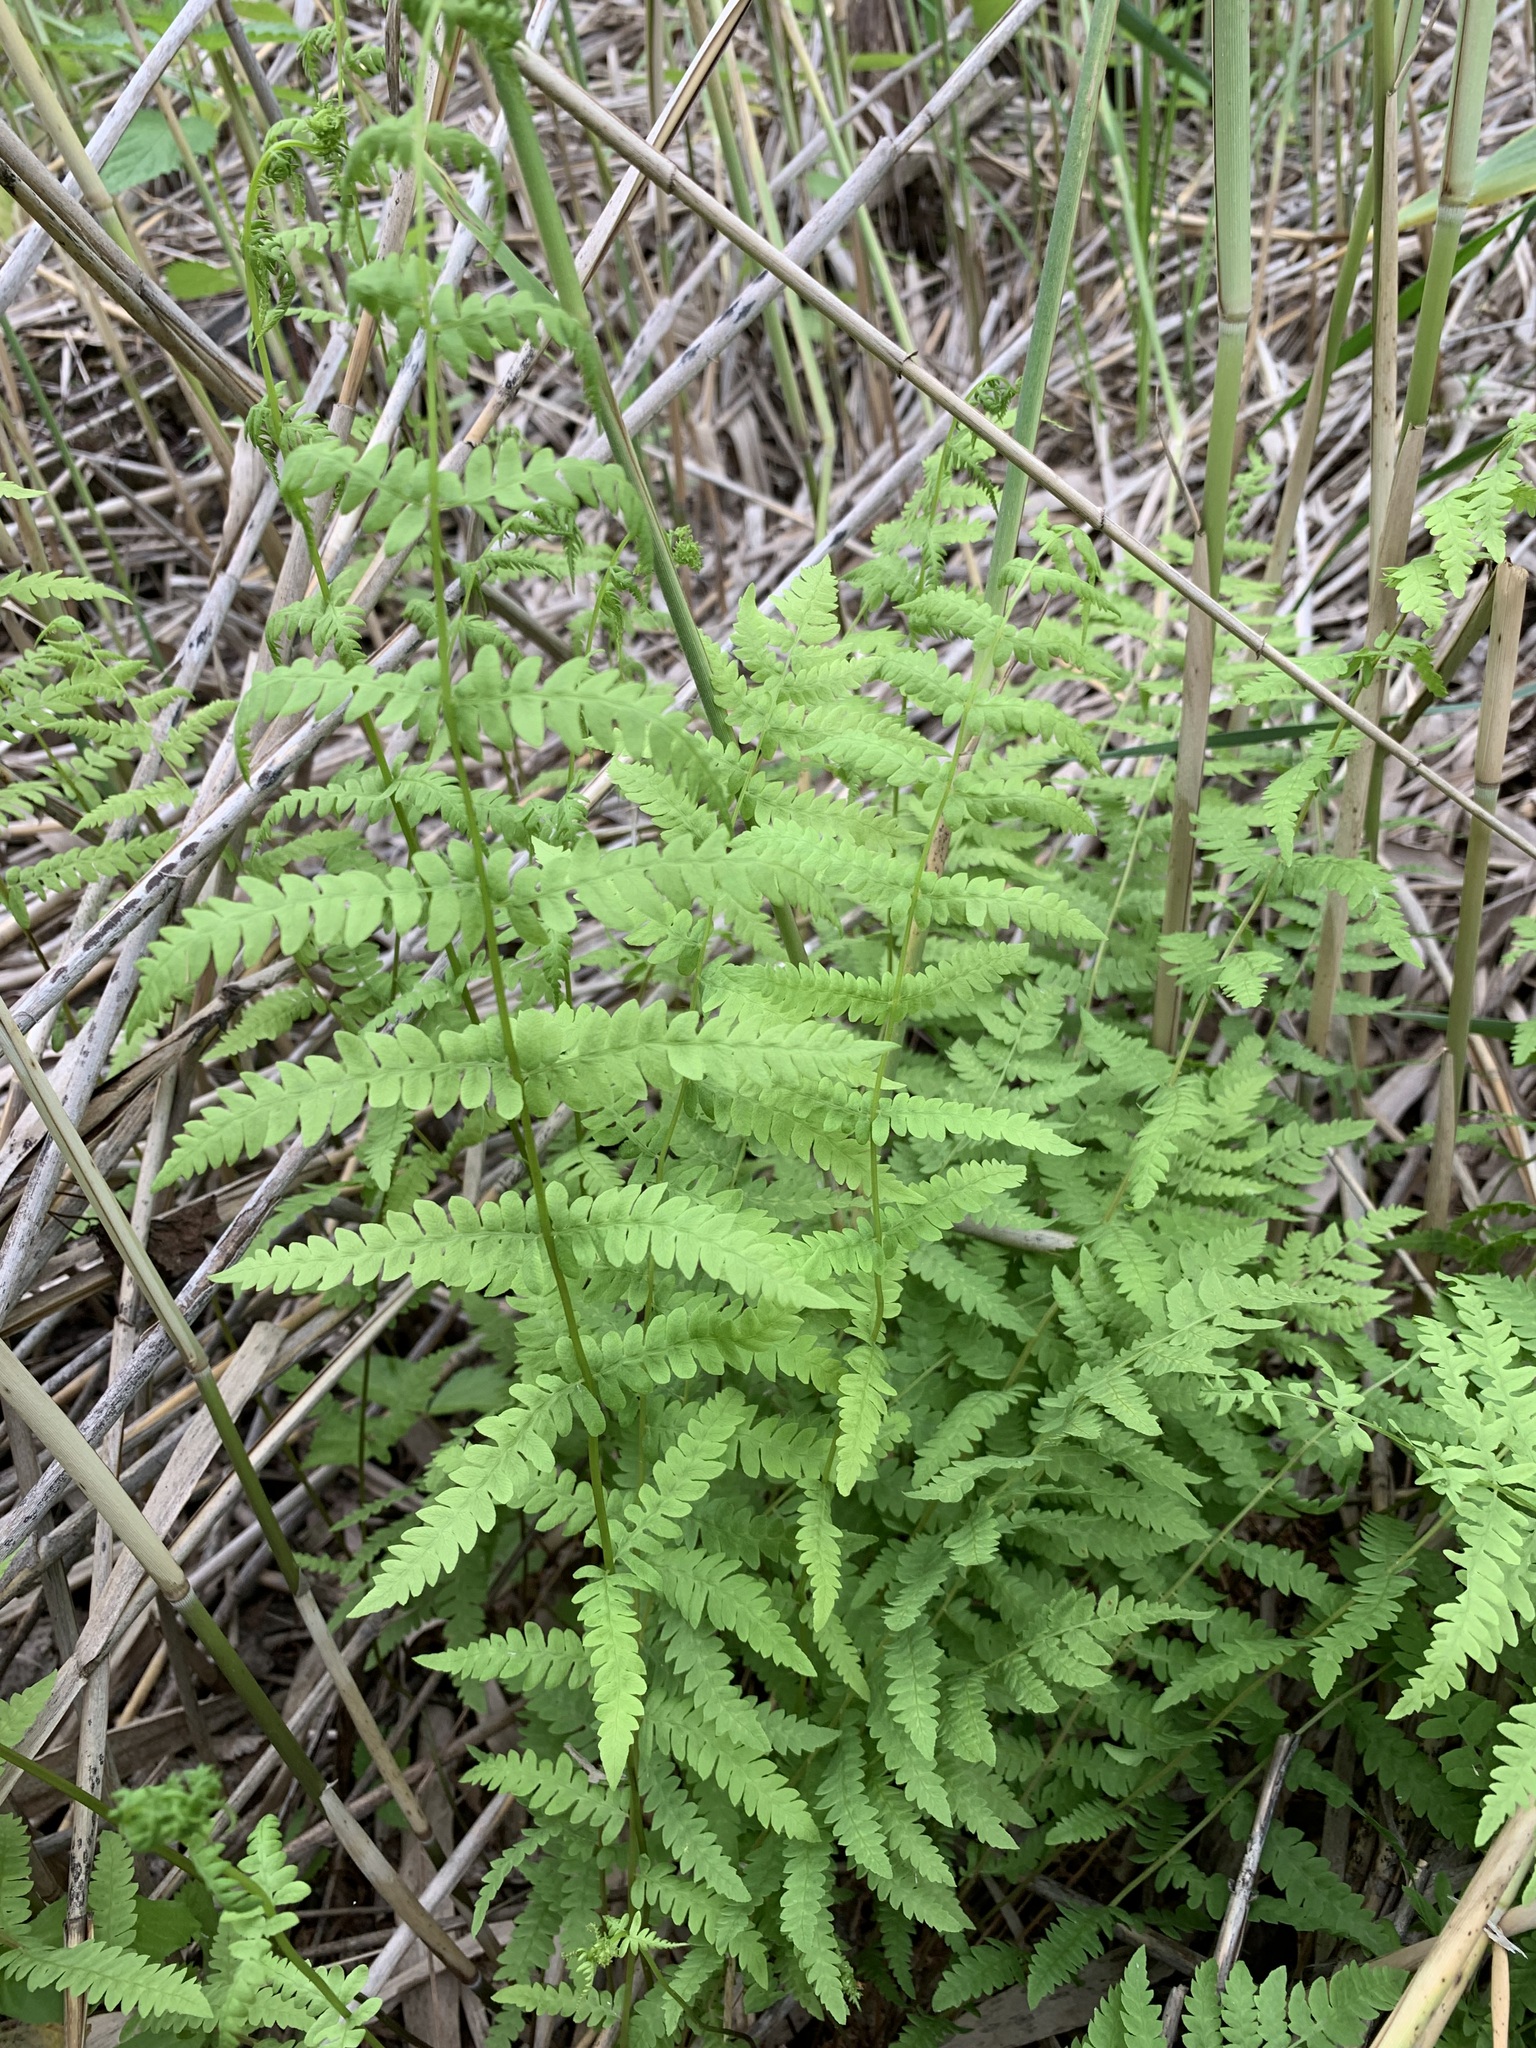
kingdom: Plantae
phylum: Tracheophyta
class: Polypodiopsida
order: Polypodiales
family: Thelypteridaceae
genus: Thelypteris
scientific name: Thelypteris palustris
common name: Marsh fern
